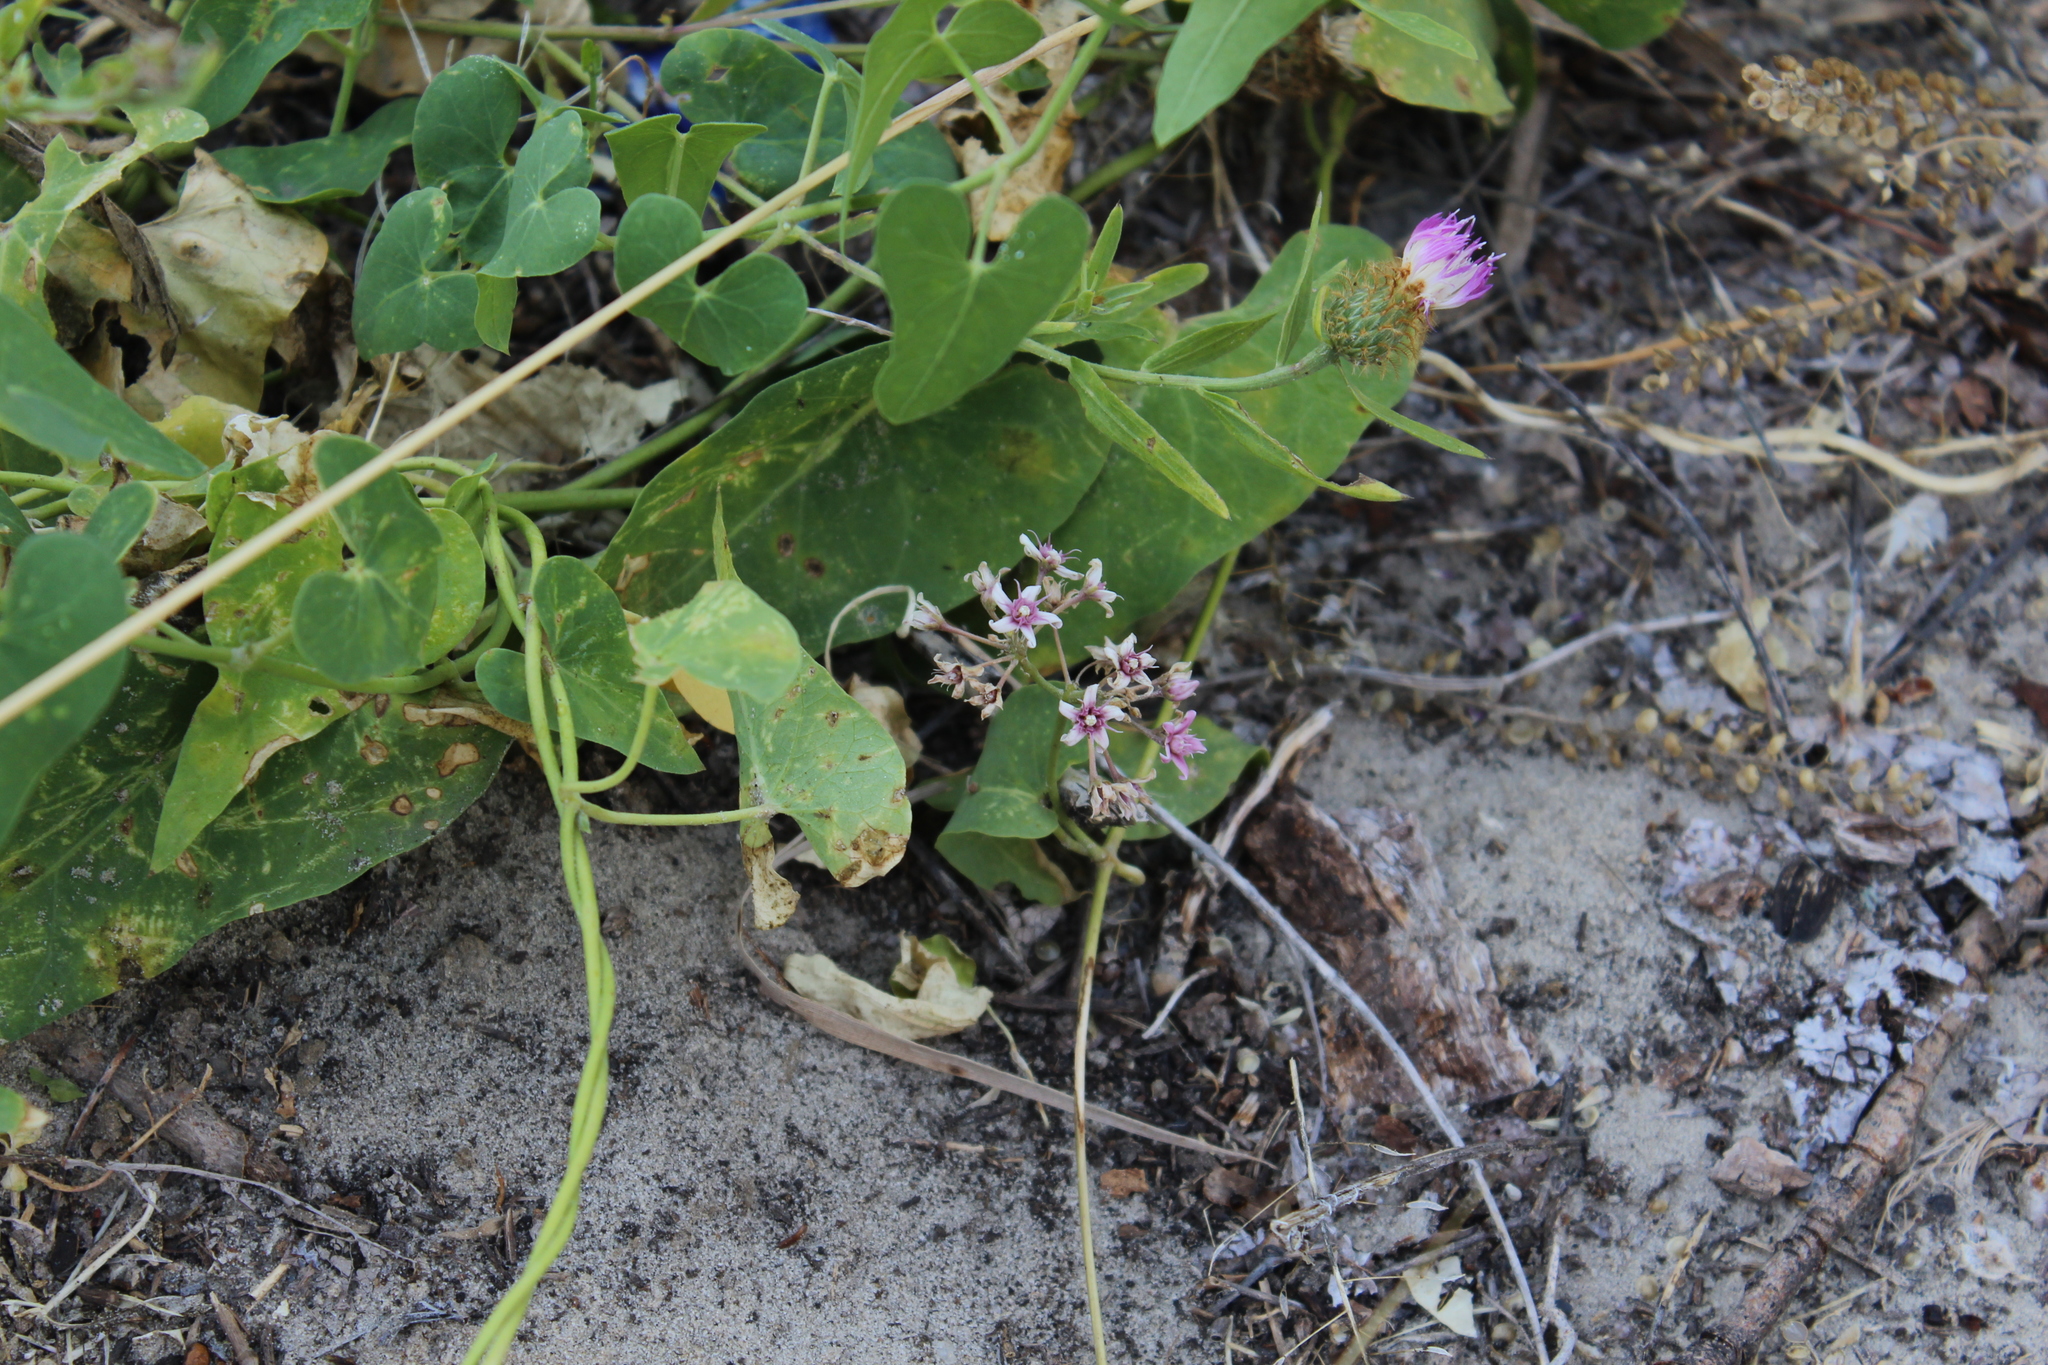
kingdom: Plantae
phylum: Tracheophyta
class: Magnoliopsida
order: Gentianales
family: Apocynaceae
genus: Cynanchum
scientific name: Cynanchum acutum
